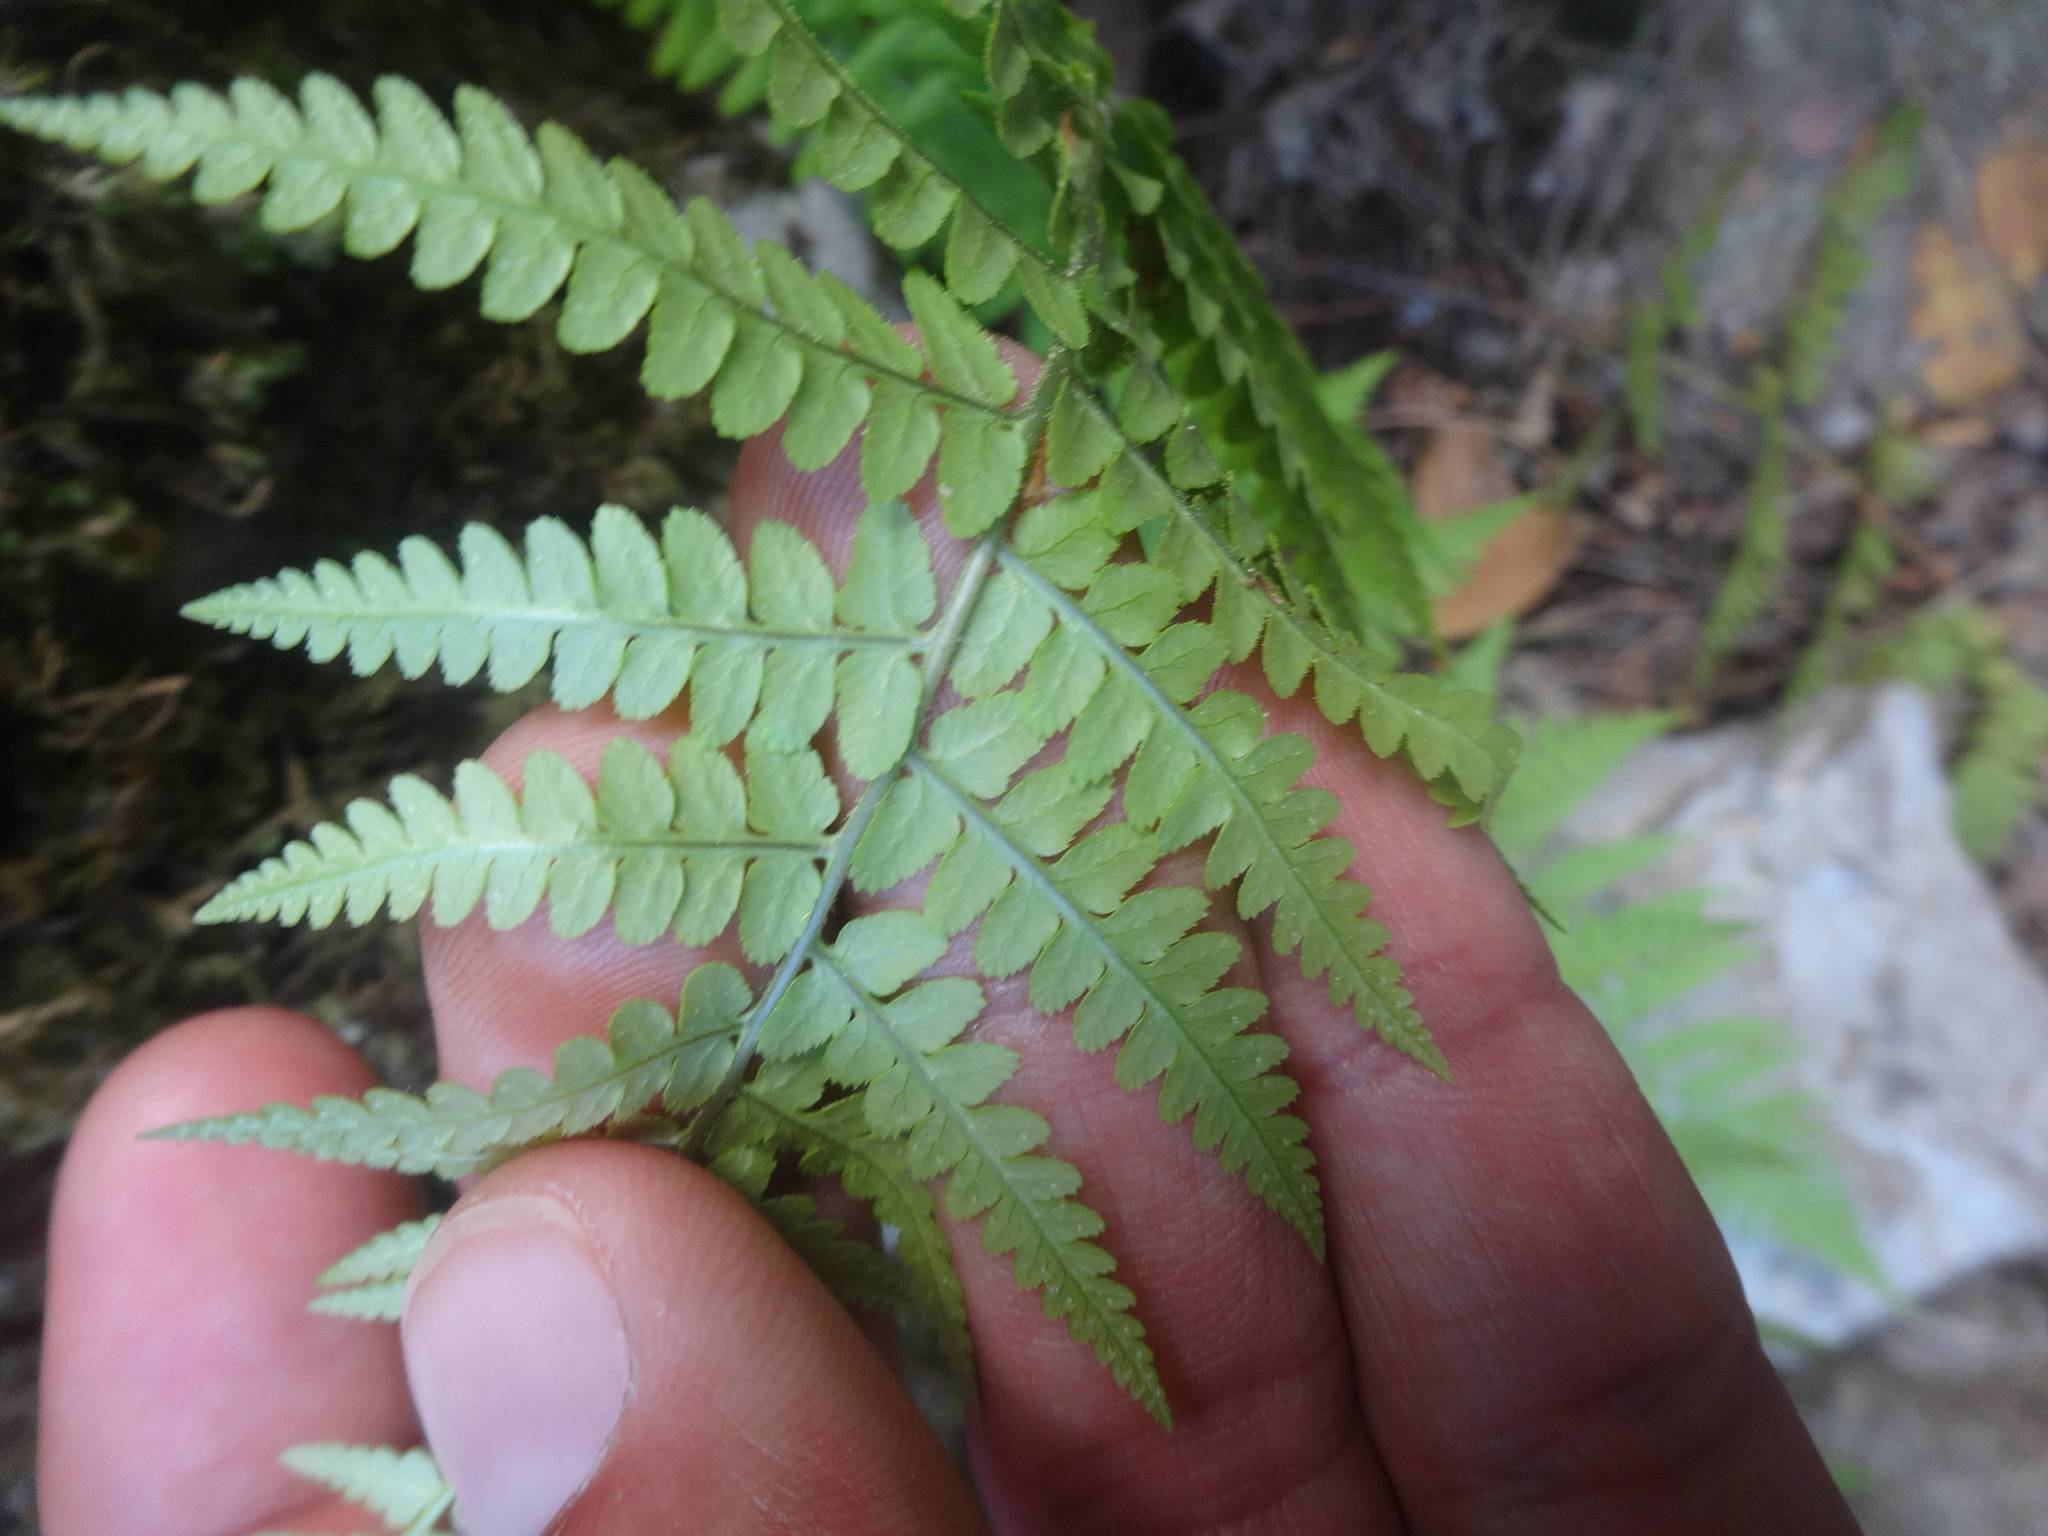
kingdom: Plantae
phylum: Tracheophyta
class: Polypodiopsida
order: Polypodiales
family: Dryopteridaceae
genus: Dryopteris
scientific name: Dryopteris pallida
